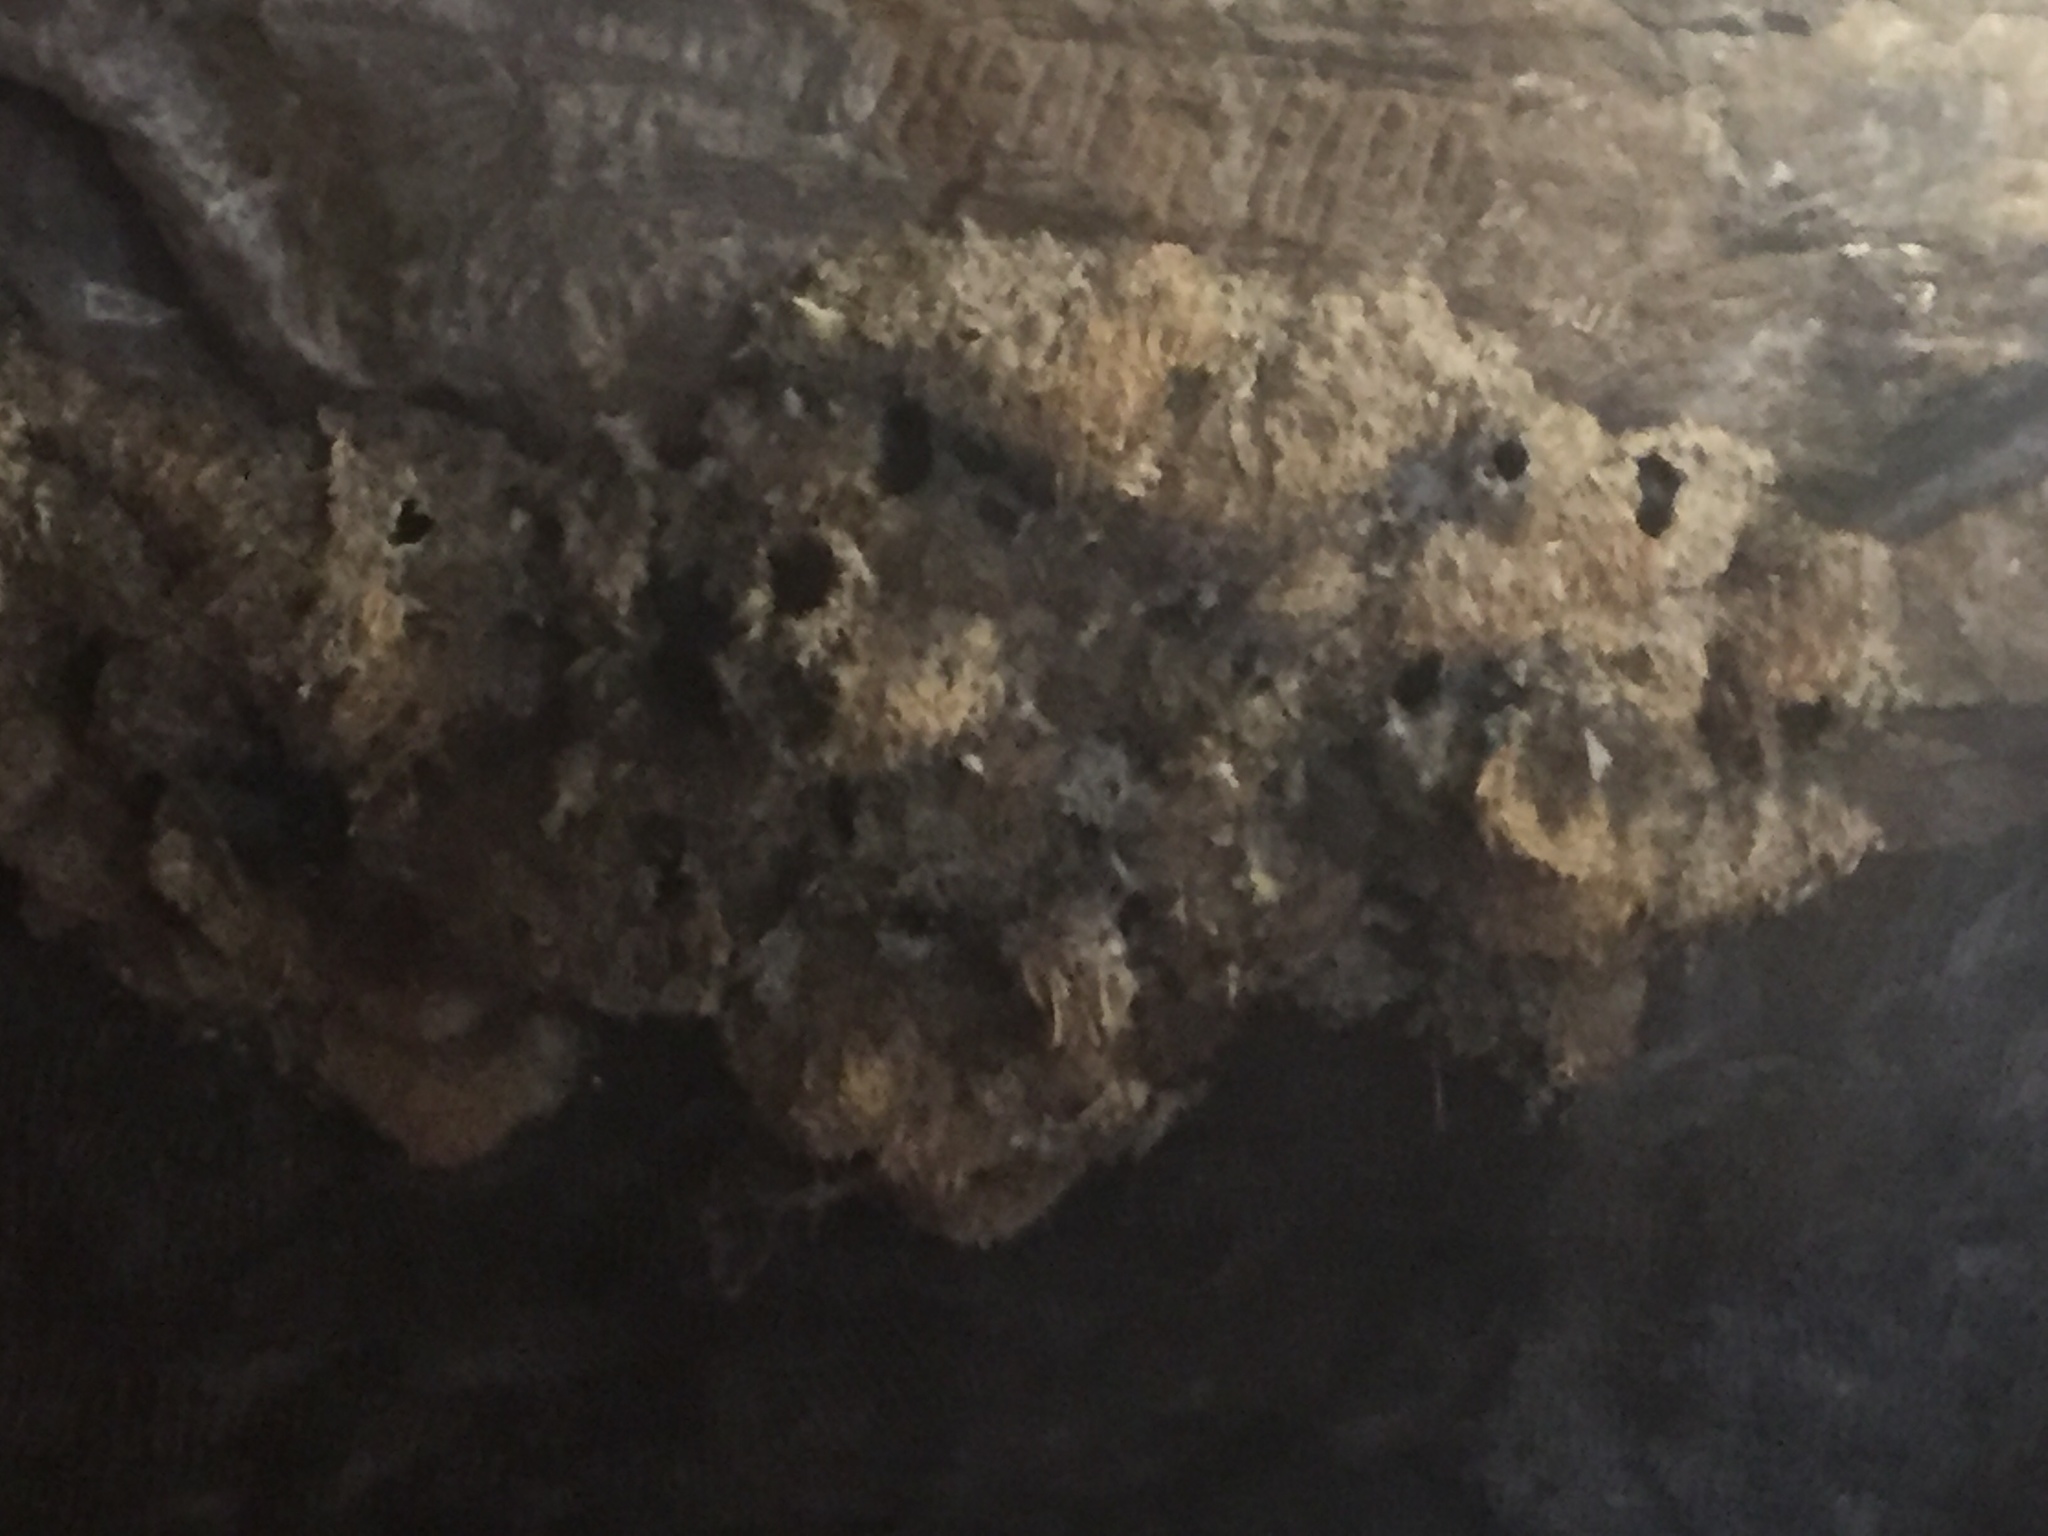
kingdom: Animalia
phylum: Chordata
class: Aves
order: Apodiformes
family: Apodidae
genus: Apus
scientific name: Apus affinis
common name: Little swift
